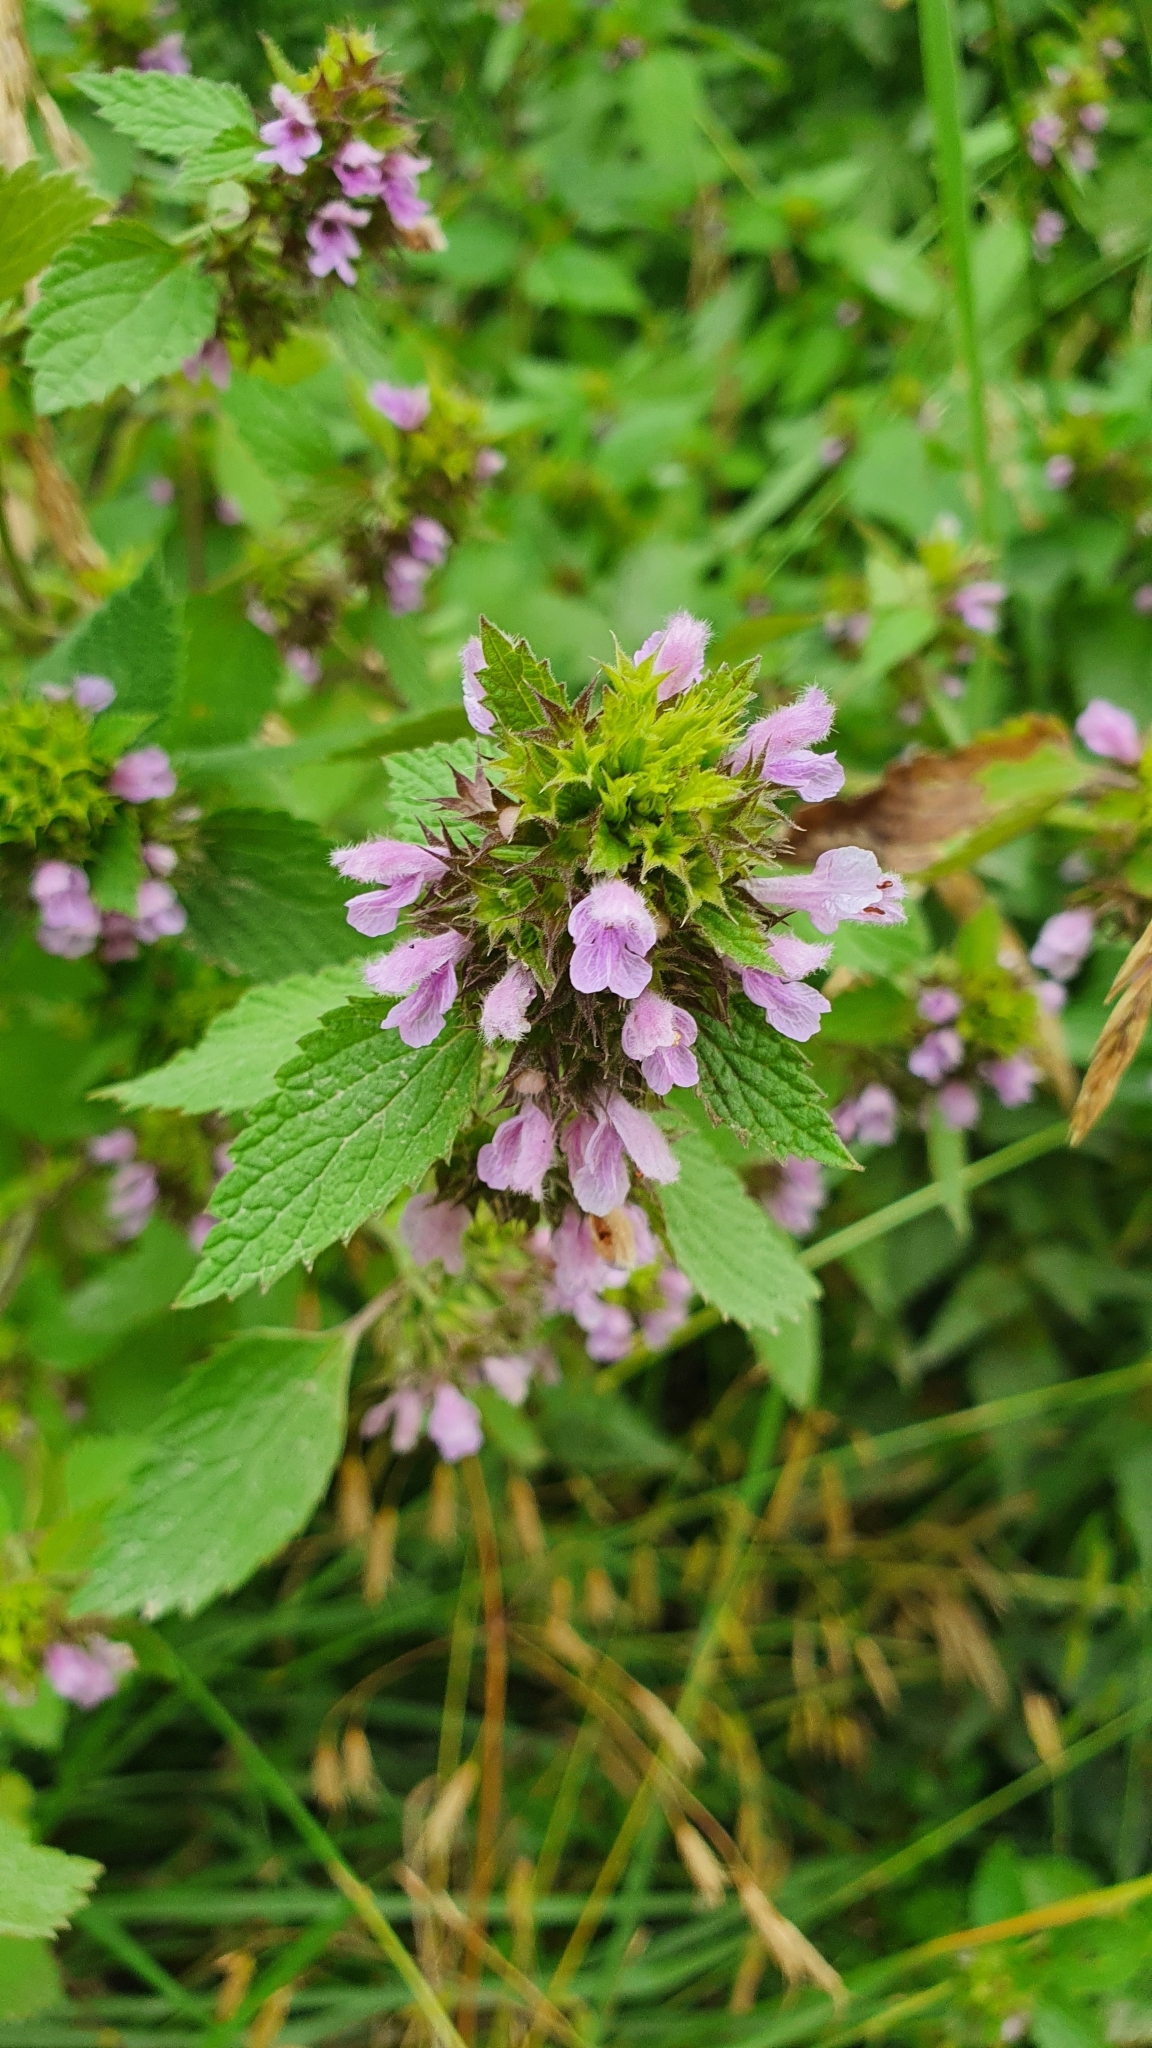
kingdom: Plantae
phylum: Tracheophyta
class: Magnoliopsida
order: Lamiales
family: Lamiaceae
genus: Ballota
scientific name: Ballota nigra
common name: Black horehound
